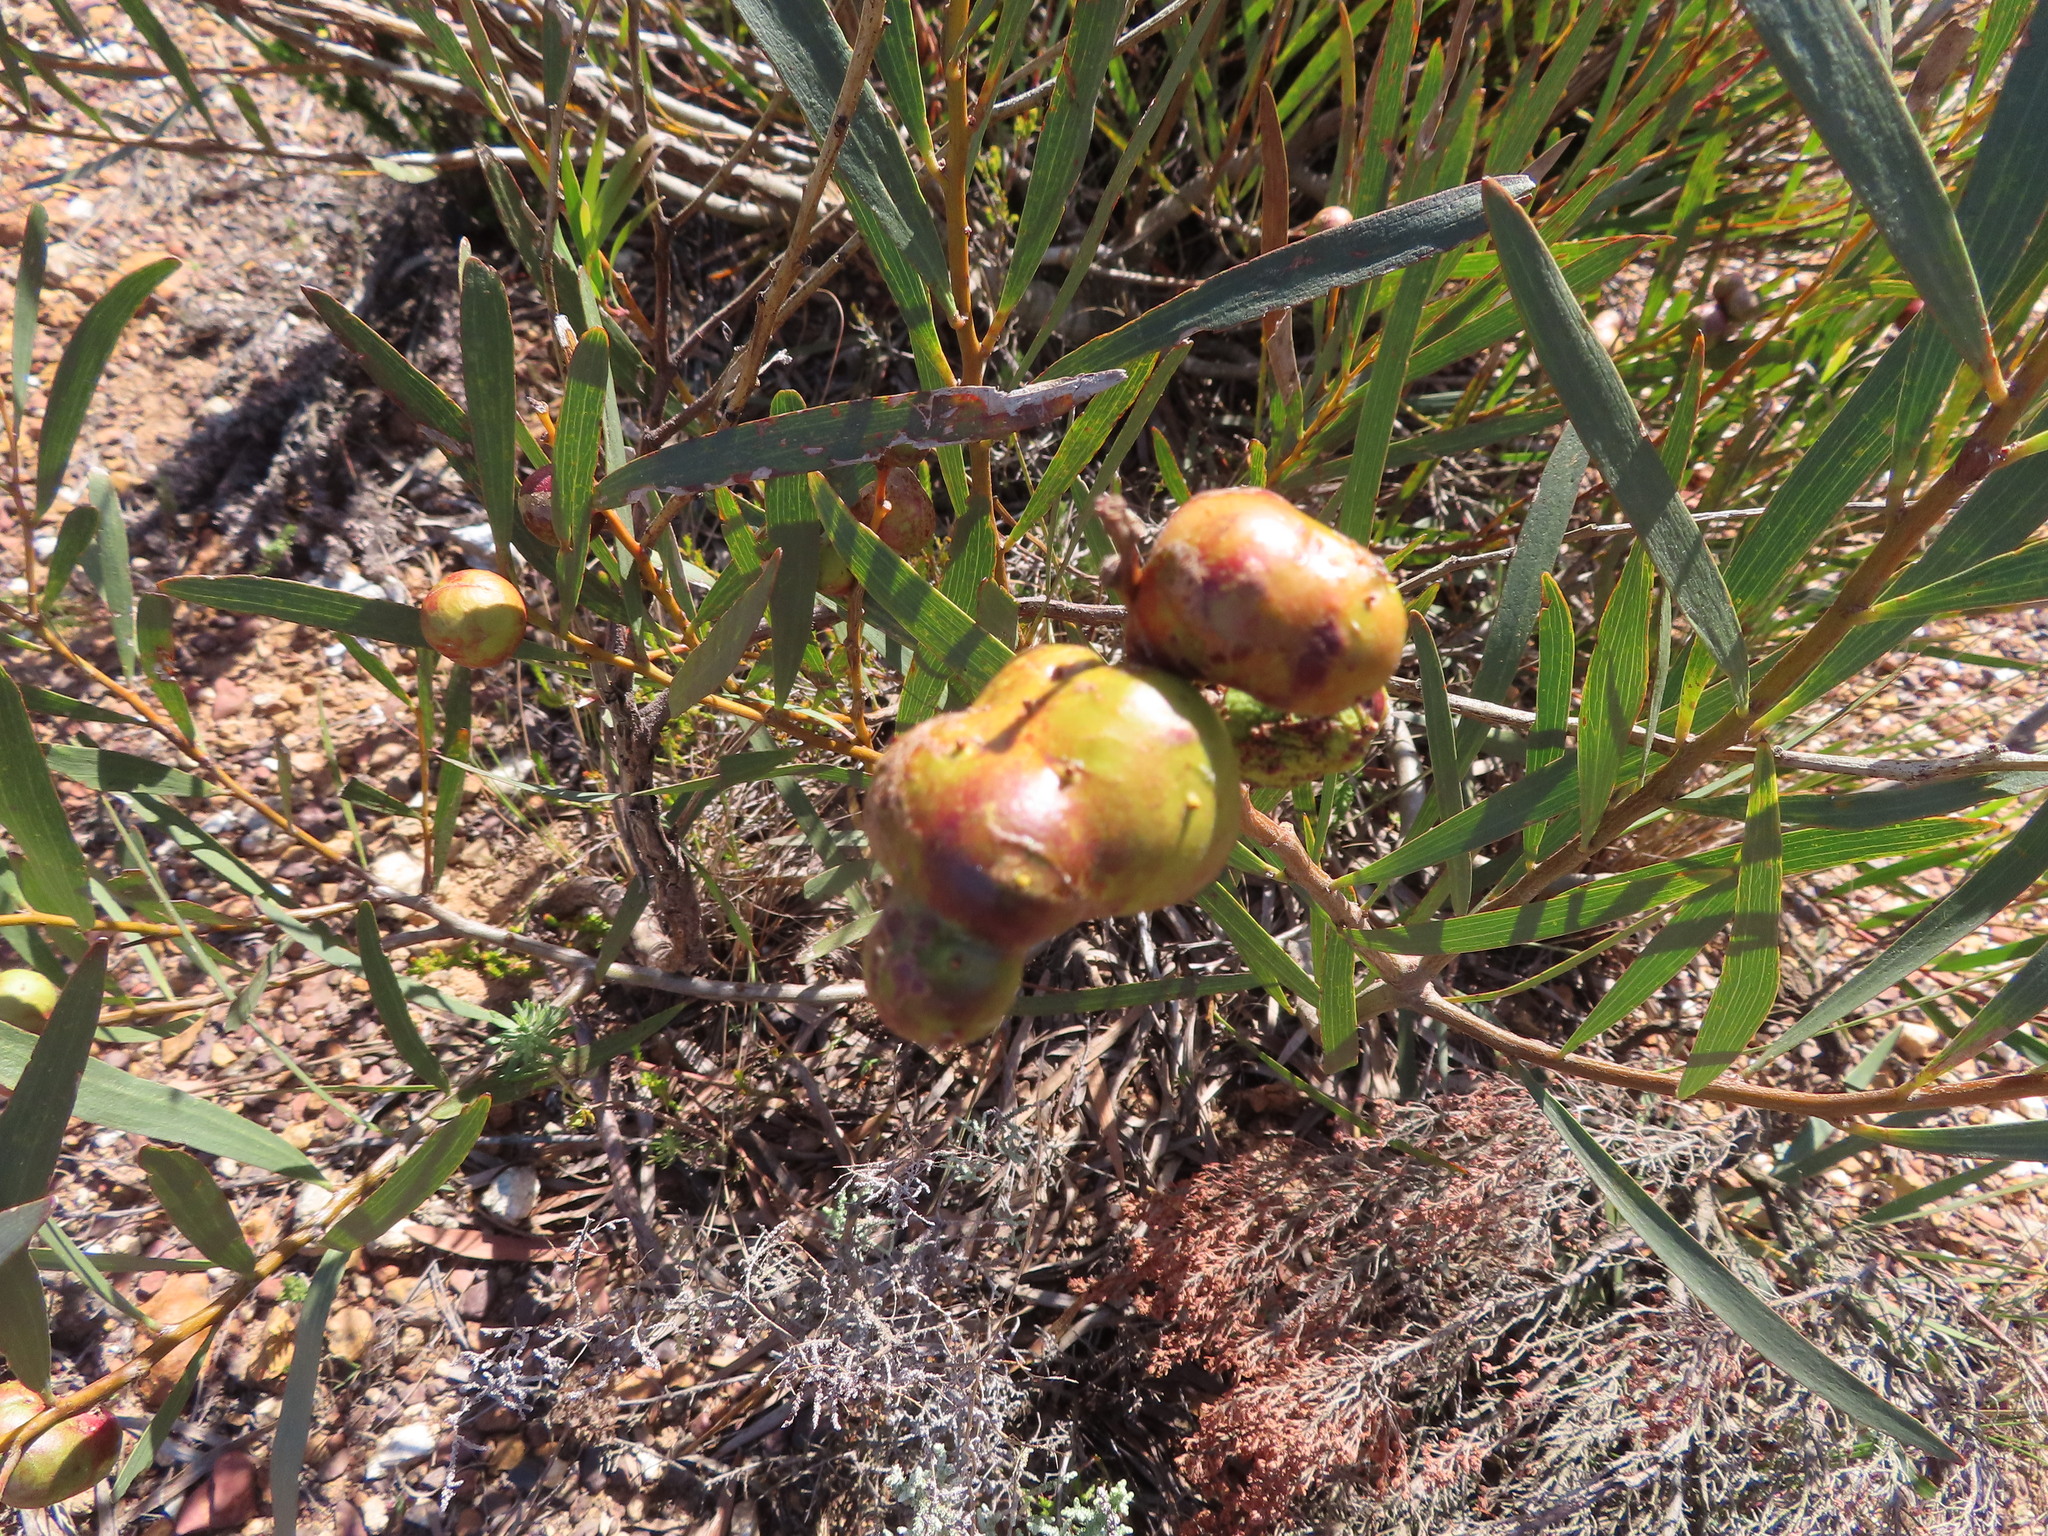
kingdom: Animalia
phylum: Arthropoda
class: Insecta
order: Hymenoptera
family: Pteromalidae
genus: Trichilogaster
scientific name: Trichilogaster acaciaelongifoliae
